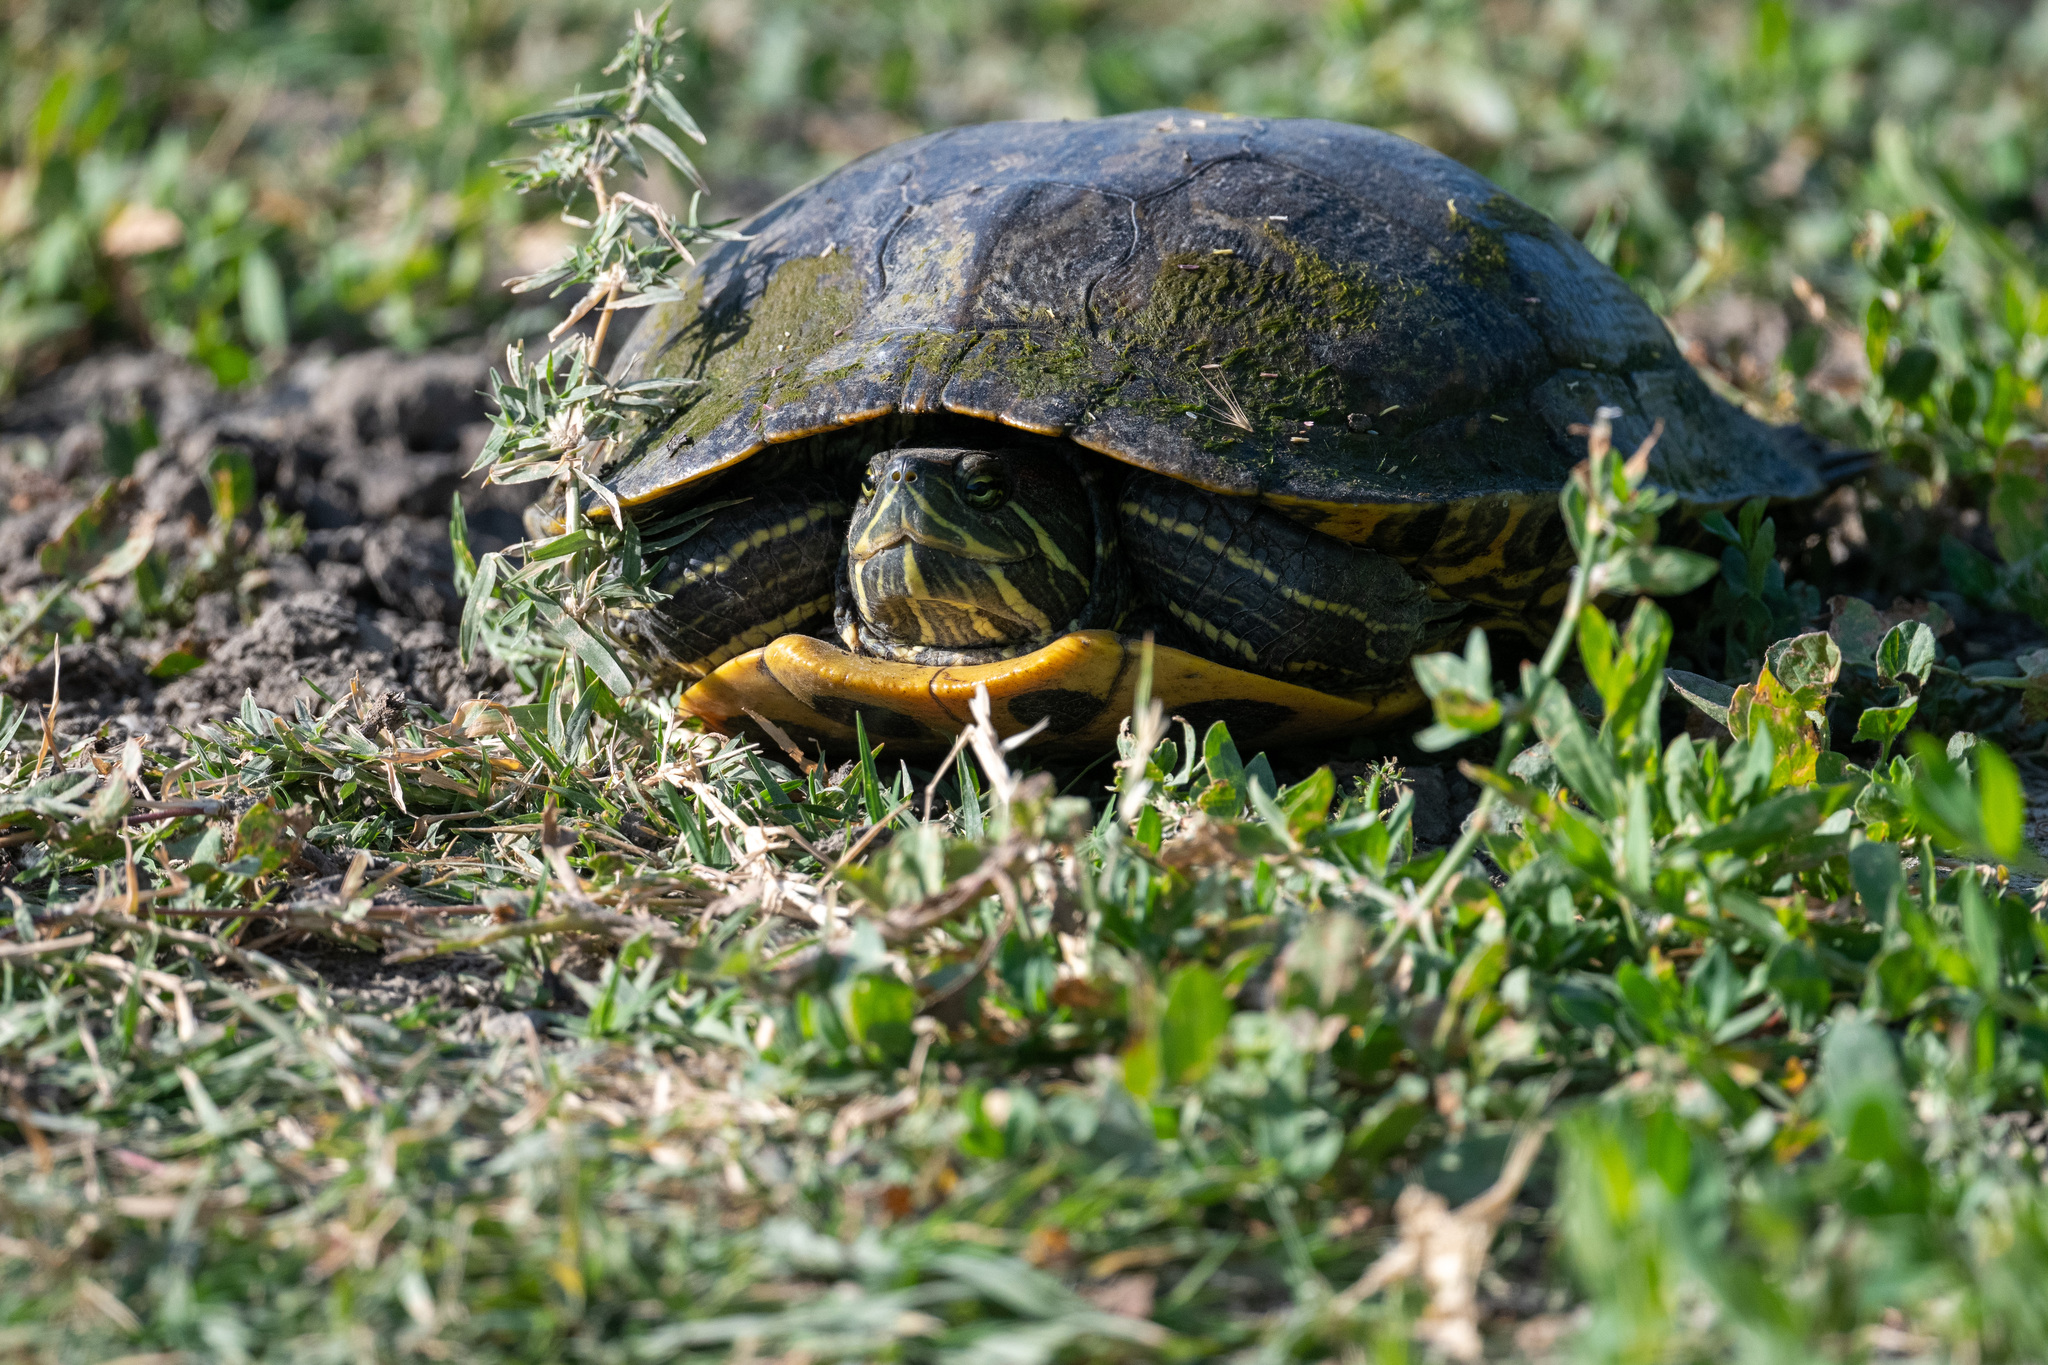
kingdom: Animalia
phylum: Chordata
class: Testudines
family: Emydidae
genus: Trachemys
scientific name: Trachemys scripta
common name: Slider
